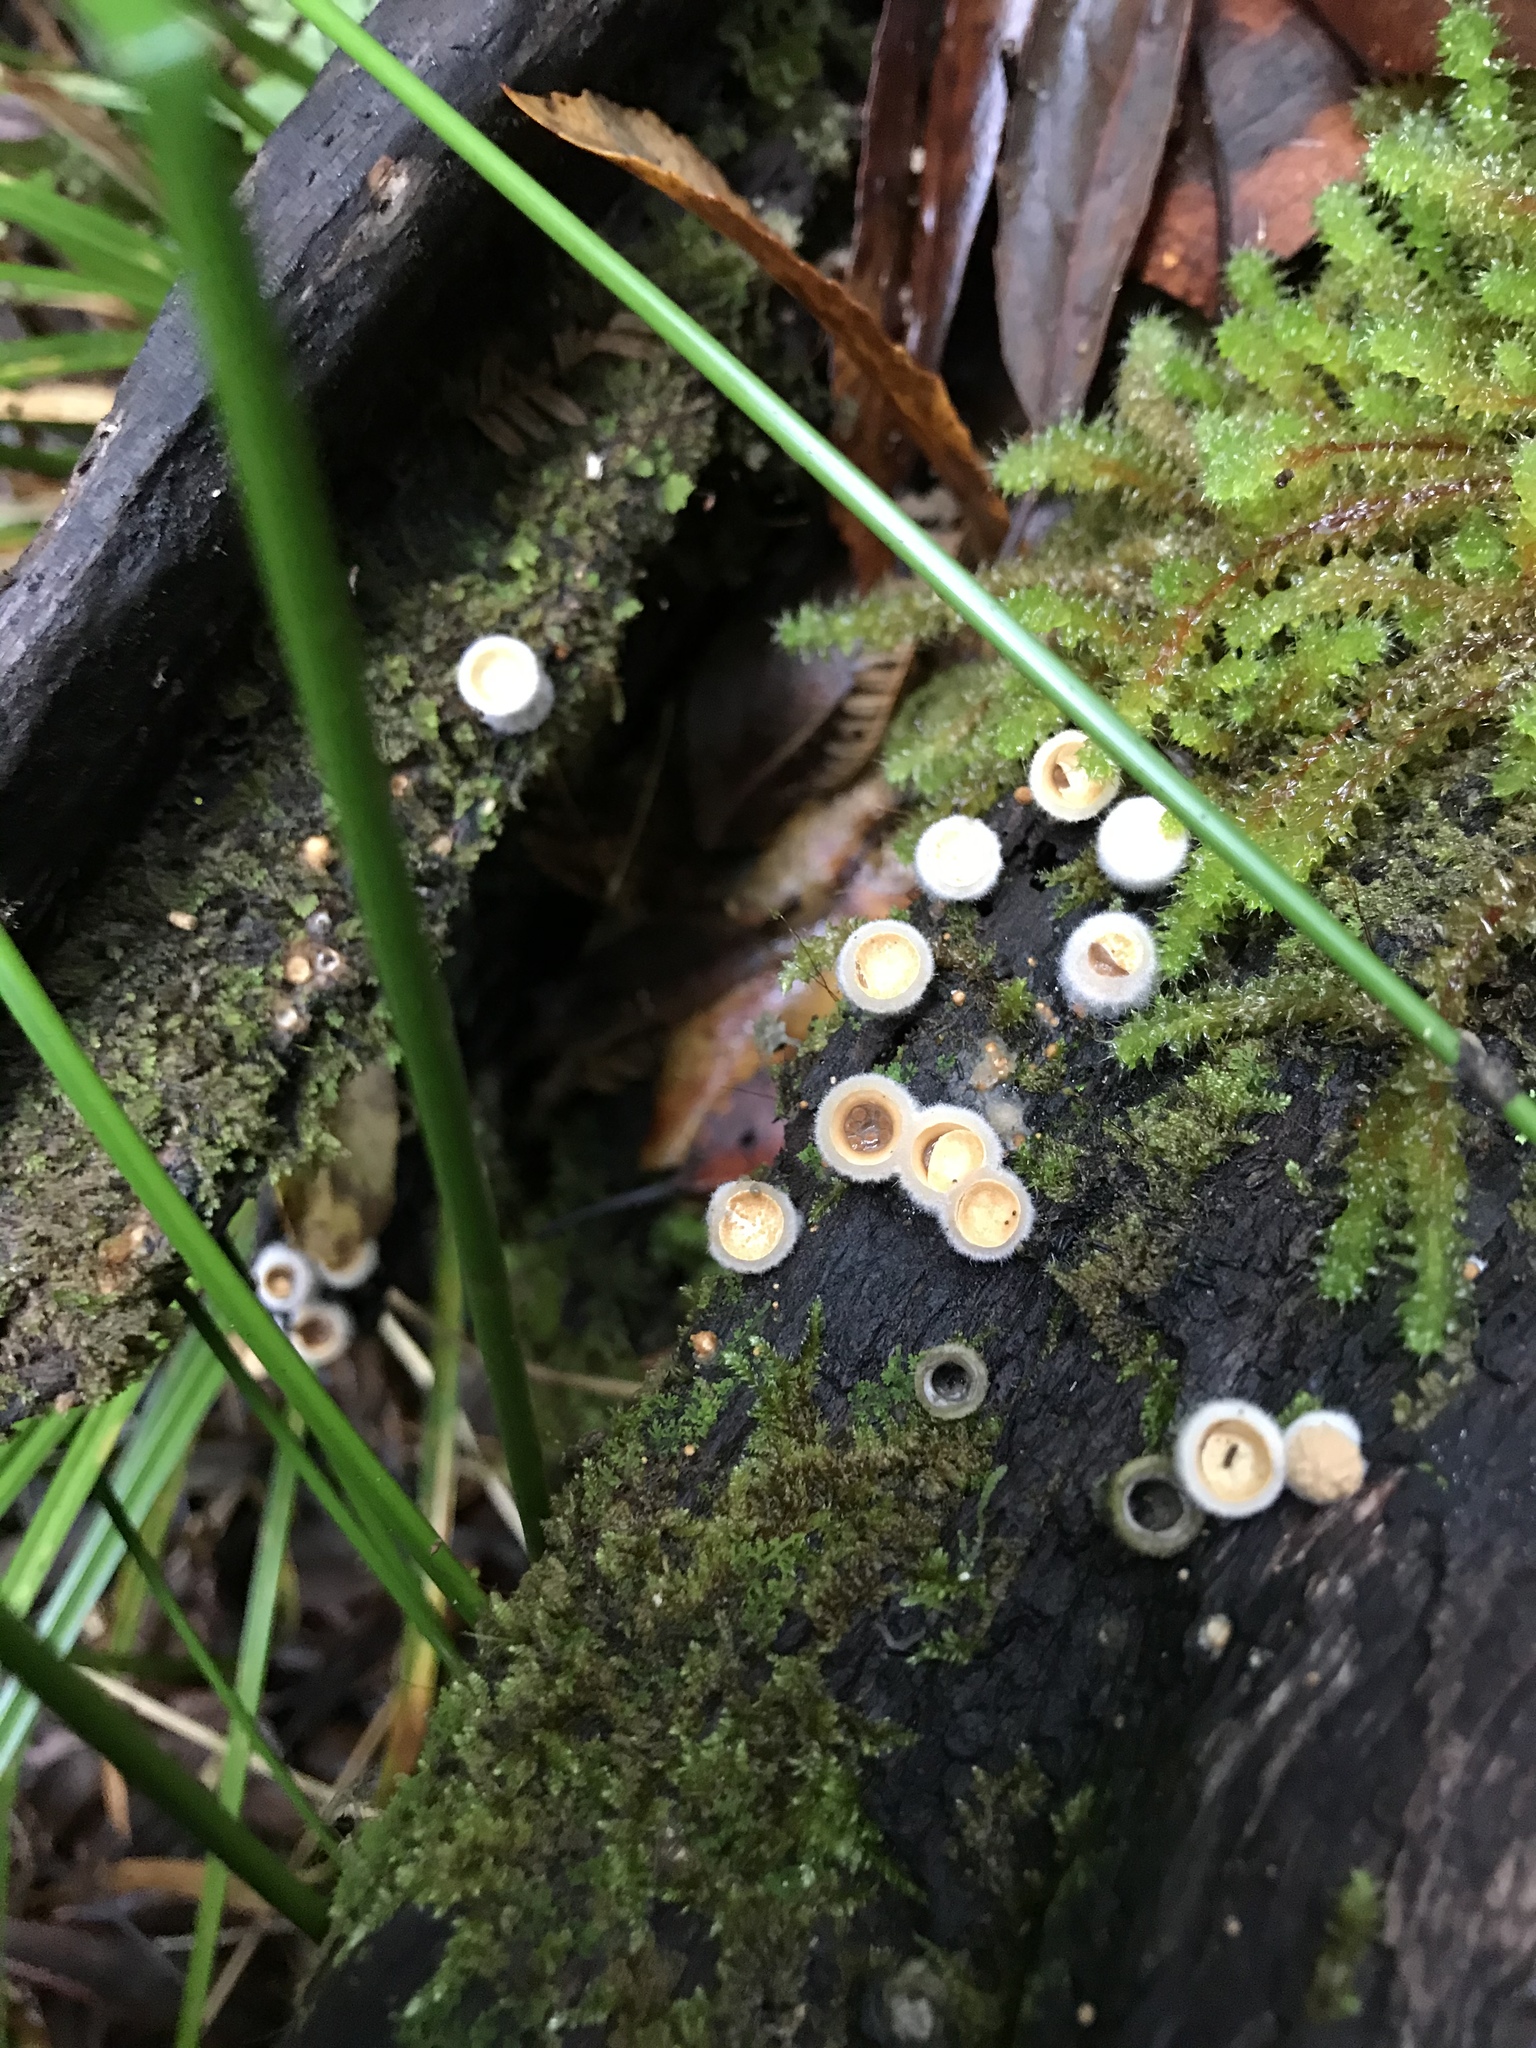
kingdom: Fungi
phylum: Basidiomycota
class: Agaricomycetes
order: Agaricales
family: Agaricaceae
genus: Nidula
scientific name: Nidula niveotomentosa
